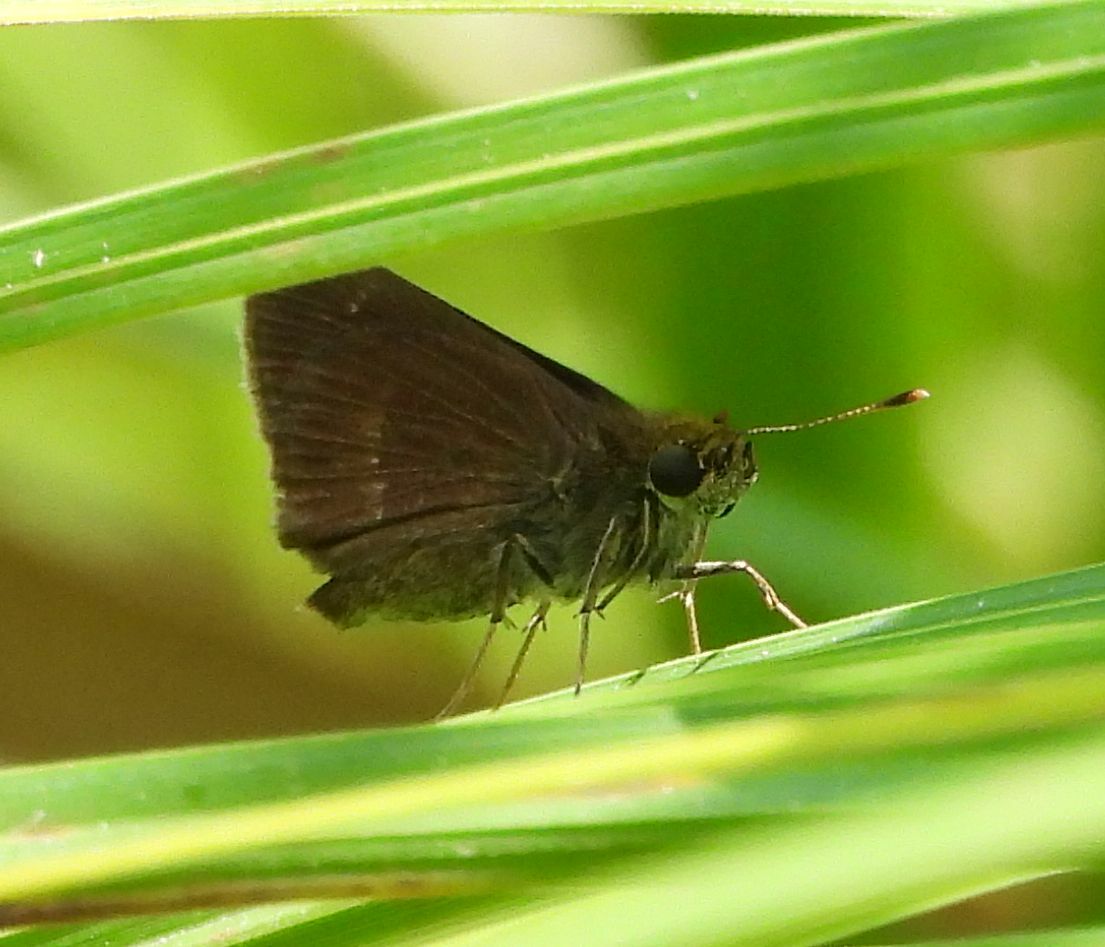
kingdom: Animalia
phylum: Arthropoda
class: Insecta
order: Lepidoptera
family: Hesperiidae
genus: Euphyes
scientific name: Euphyes vestris
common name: Dun skipper
